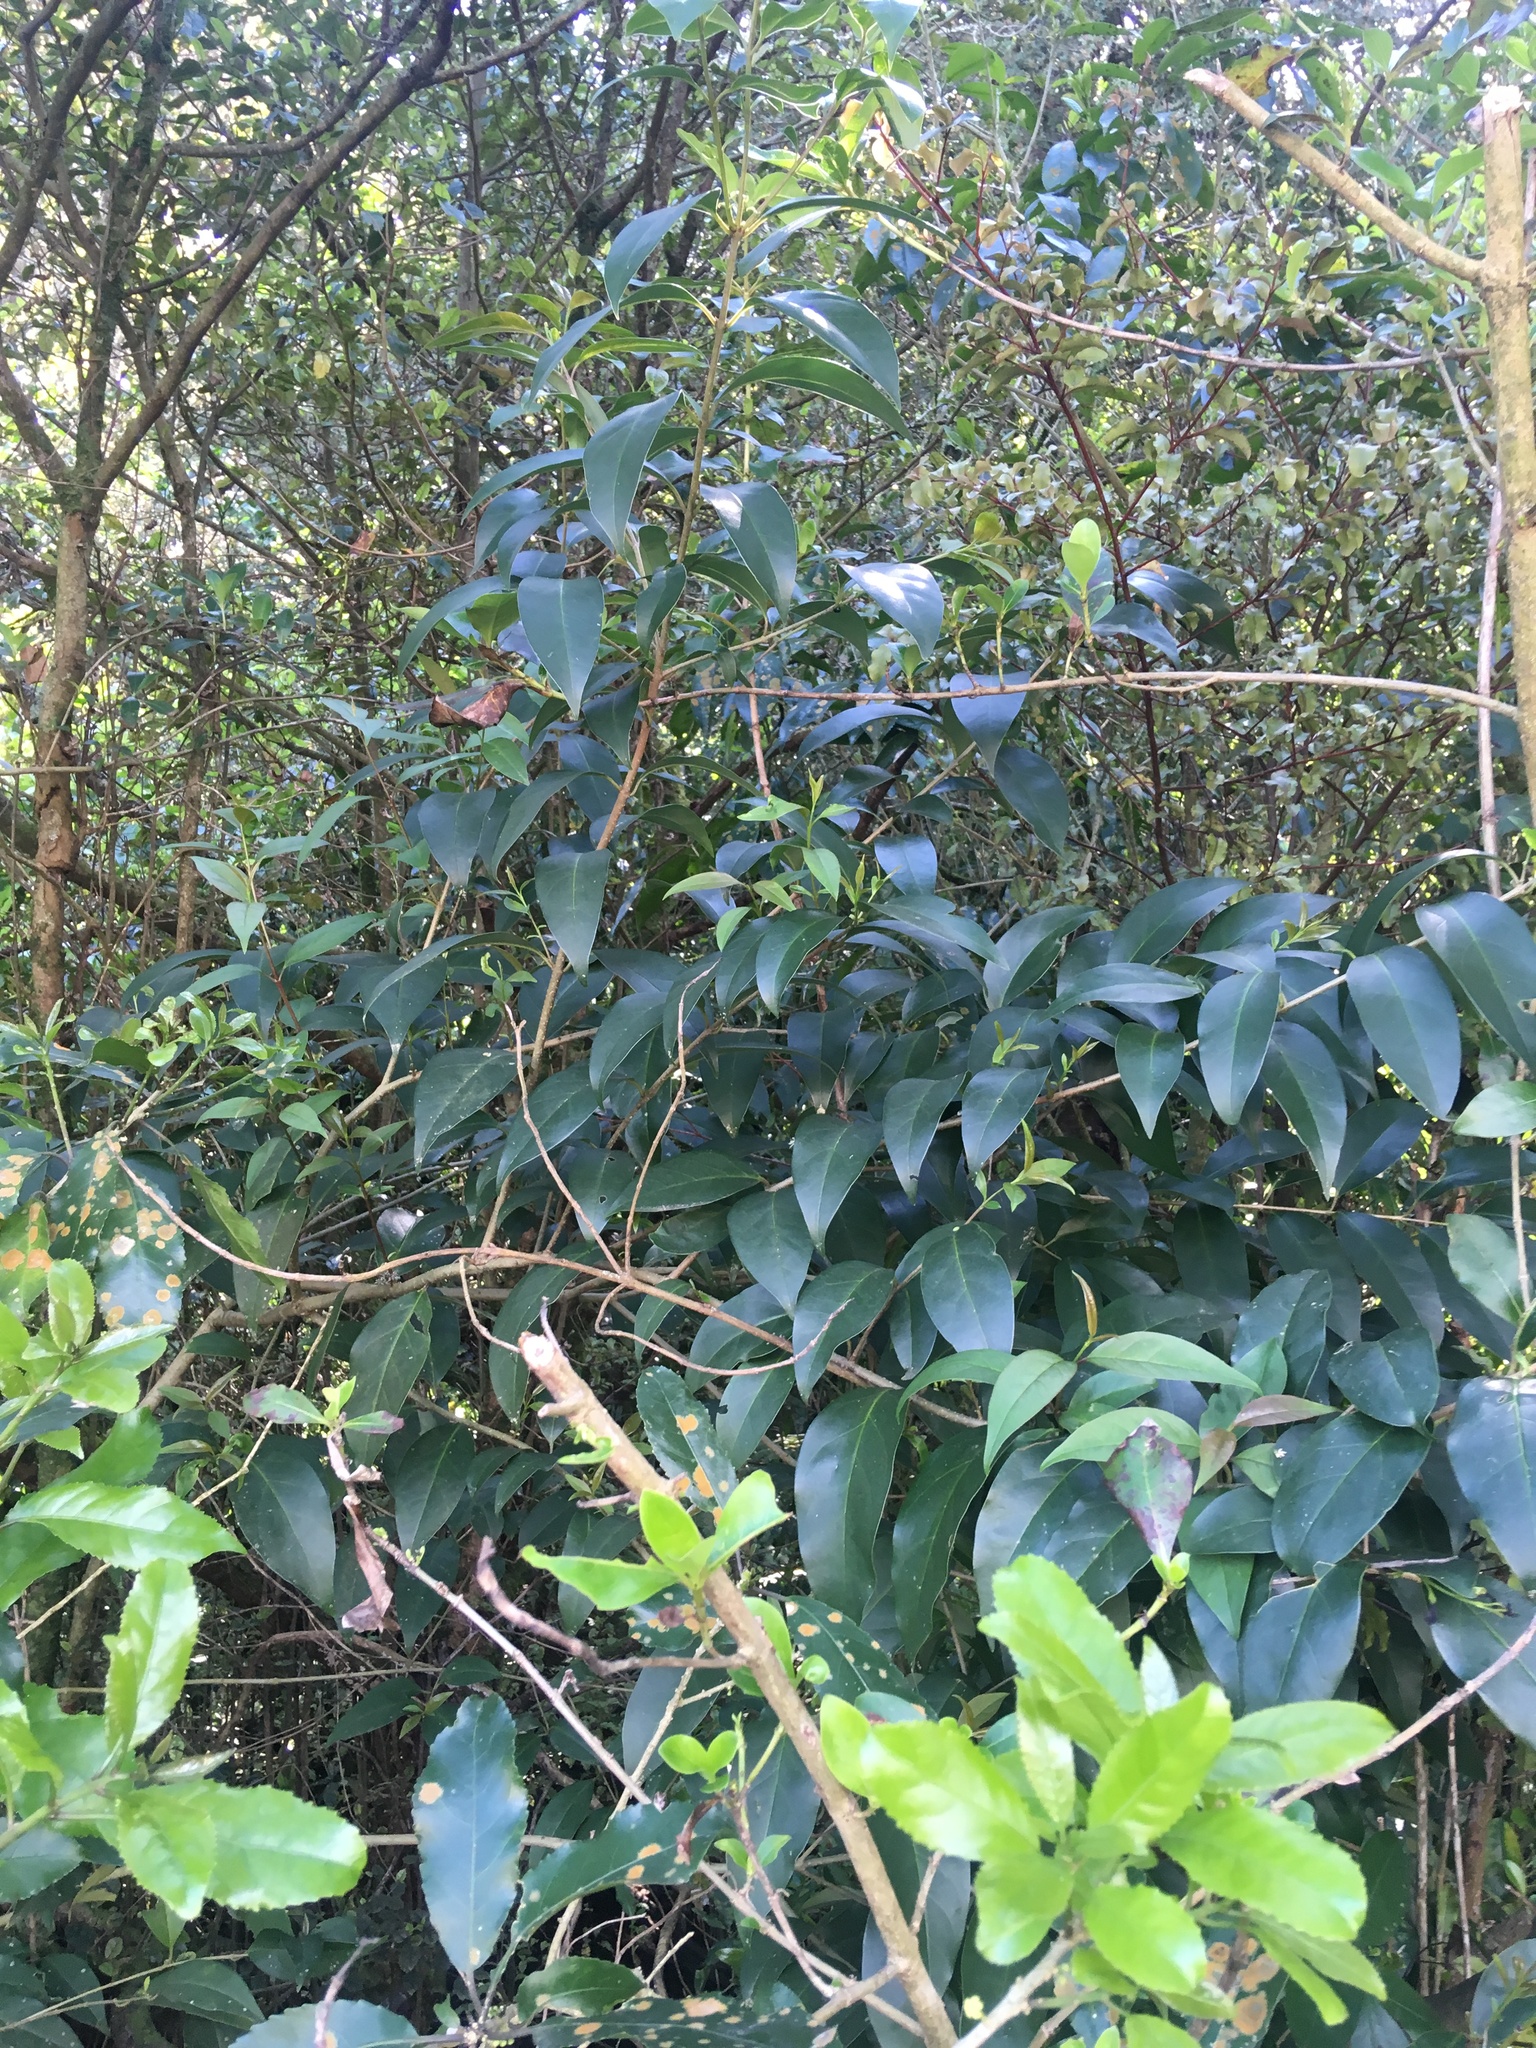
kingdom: Plantae
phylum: Tracheophyta
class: Magnoliopsida
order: Lamiales
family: Oleaceae
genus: Ligustrum
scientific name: Ligustrum lucidum
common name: Glossy privet
